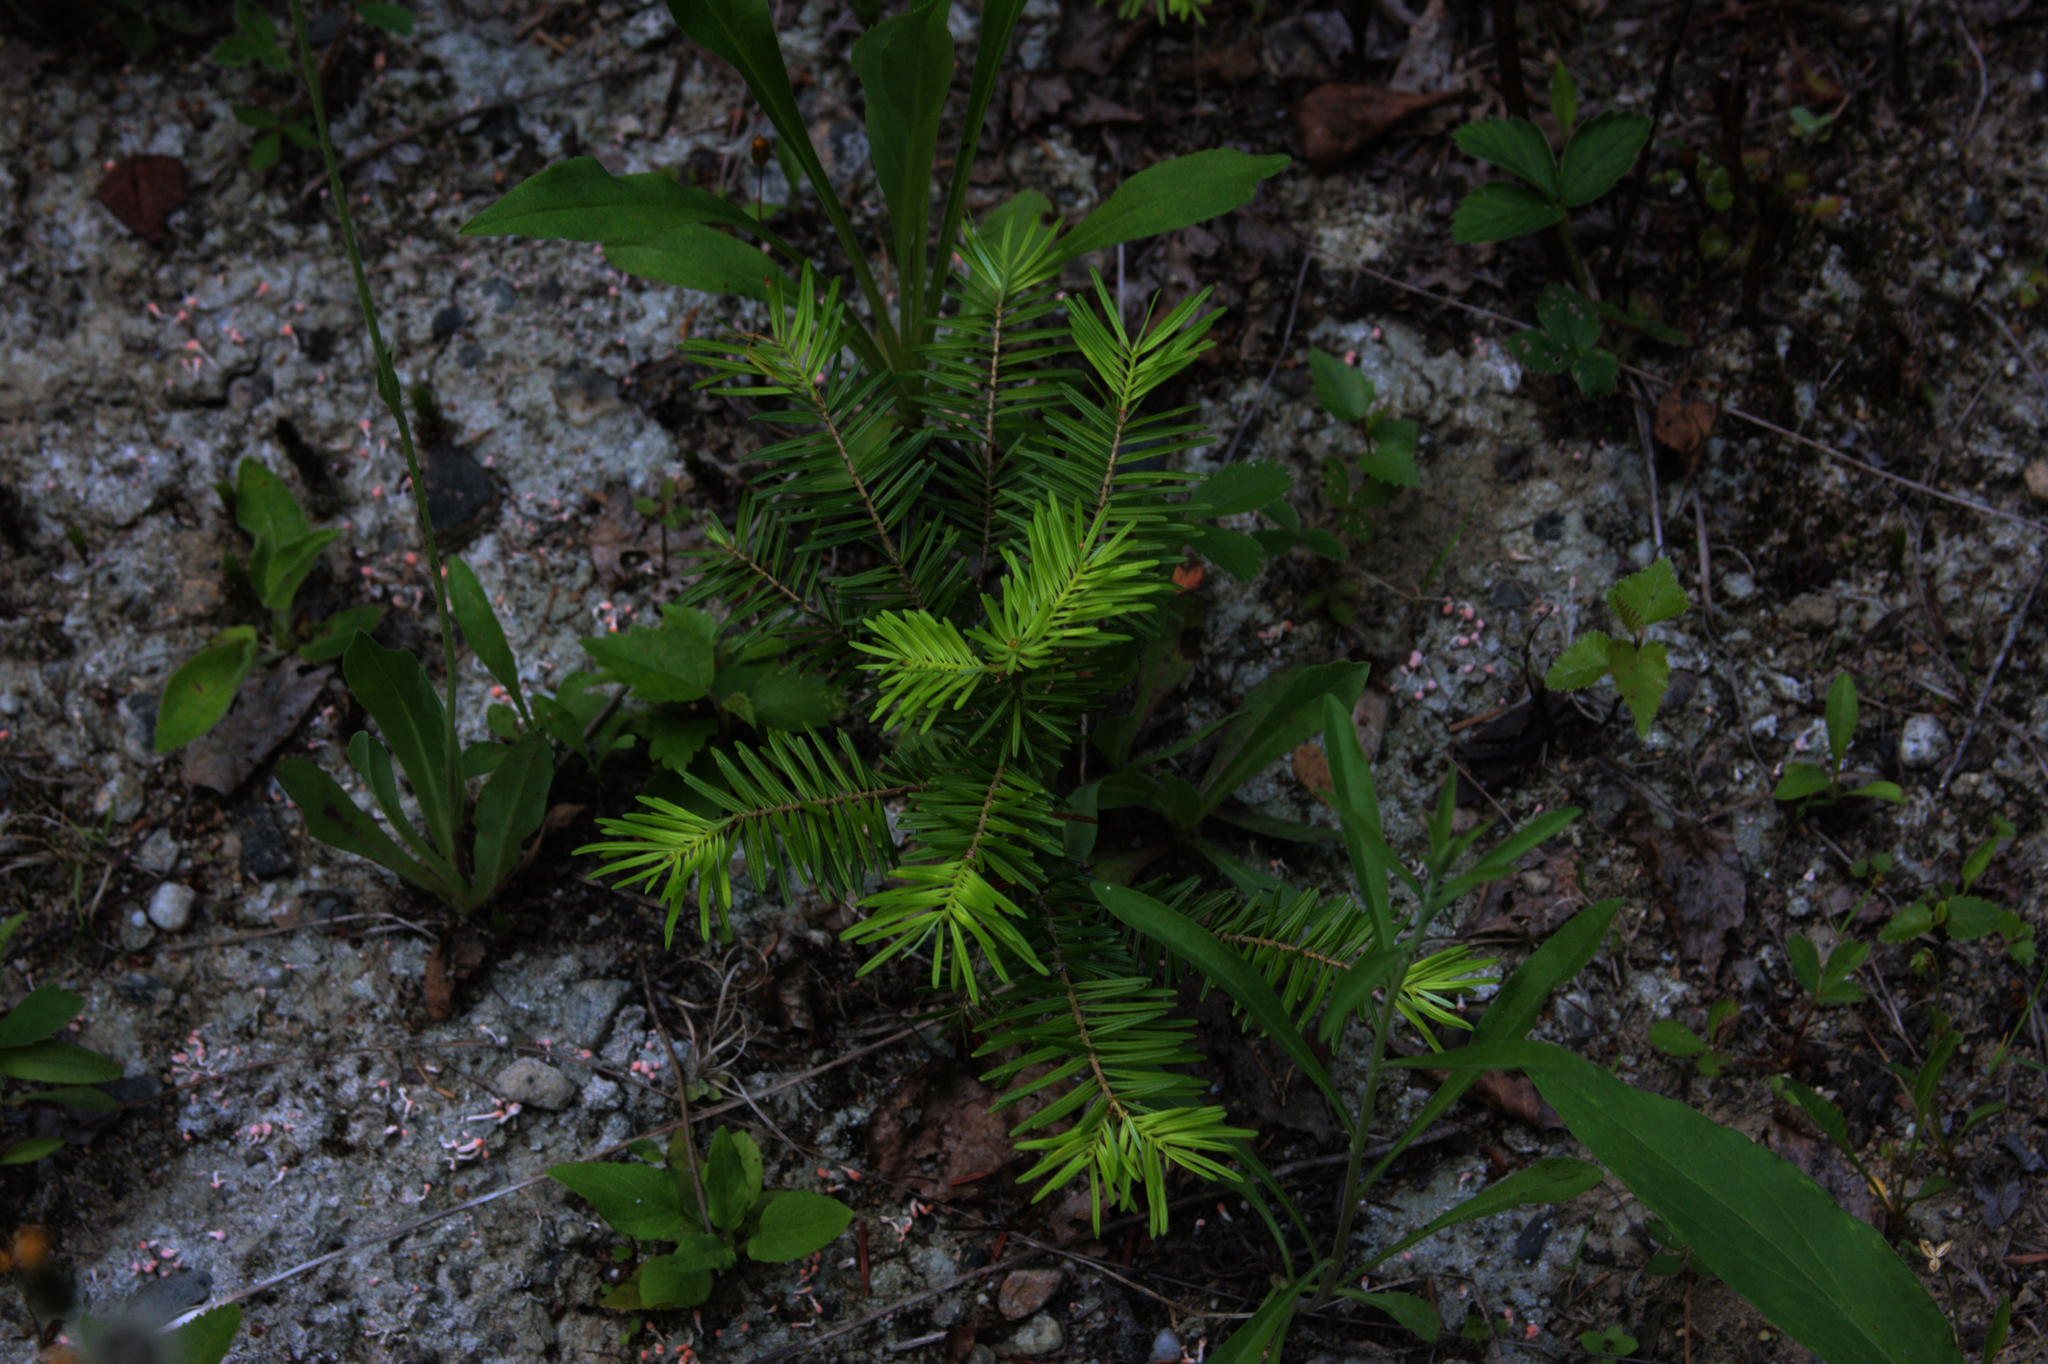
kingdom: Plantae
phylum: Tracheophyta
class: Pinopsida
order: Pinales
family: Pinaceae
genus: Abies
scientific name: Abies balsamea
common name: Balsam fir
